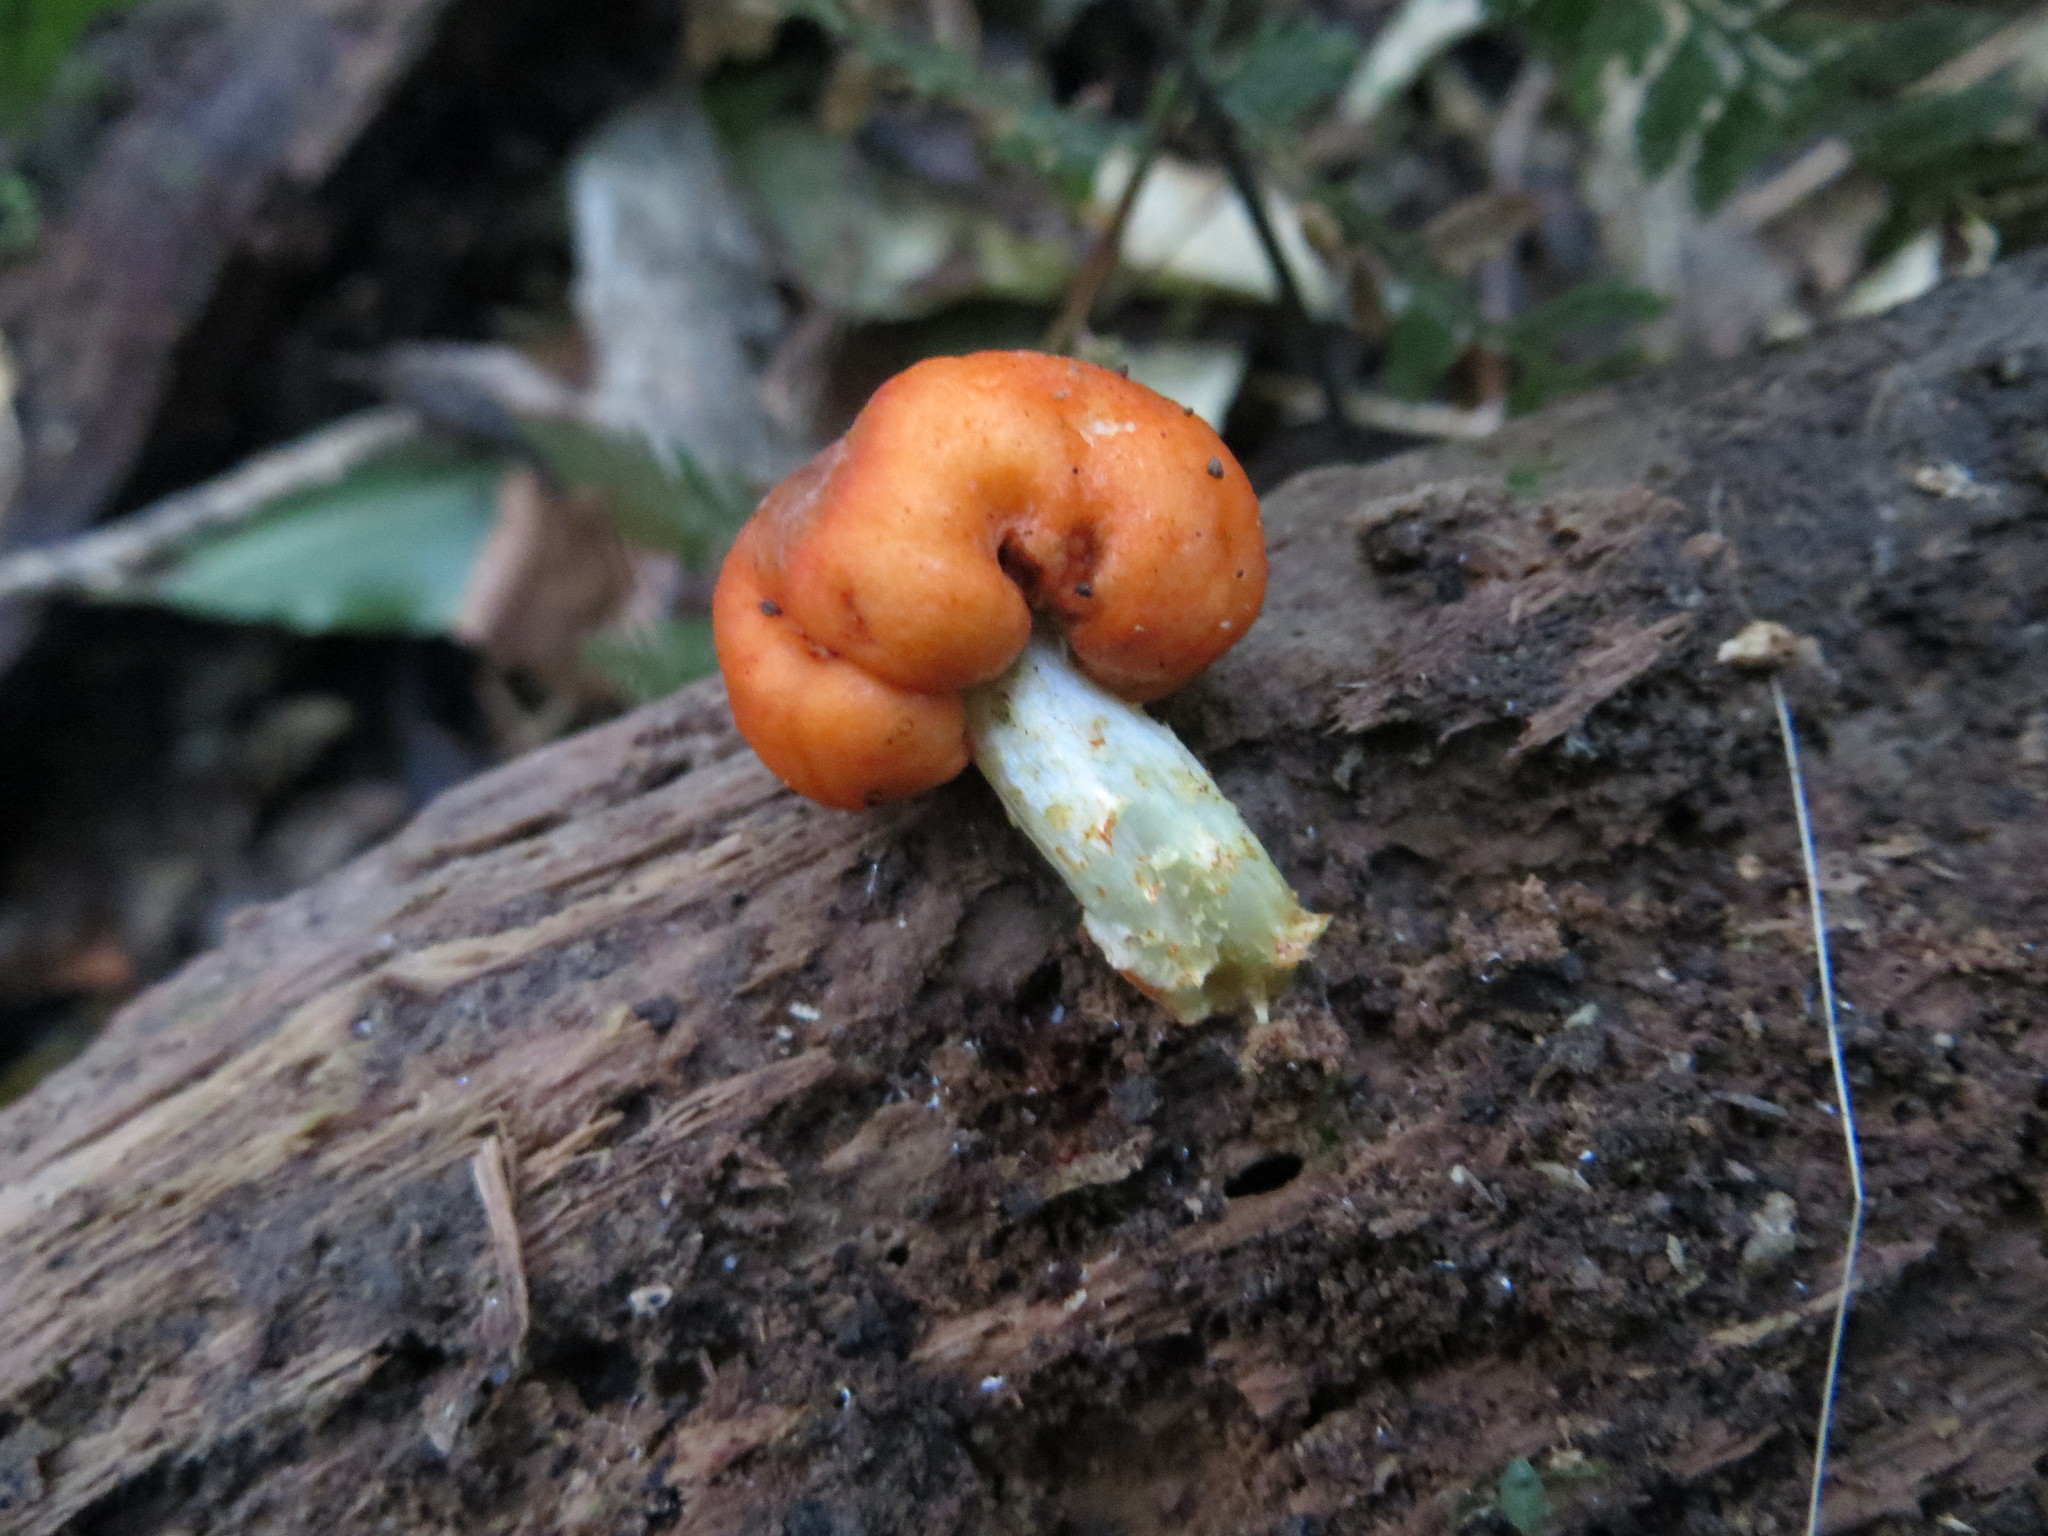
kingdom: Fungi
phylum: Basidiomycota
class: Agaricomycetes
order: Agaricales
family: Strophariaceae
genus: Leratiomyces
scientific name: Leratiomyces erythrocephalus
